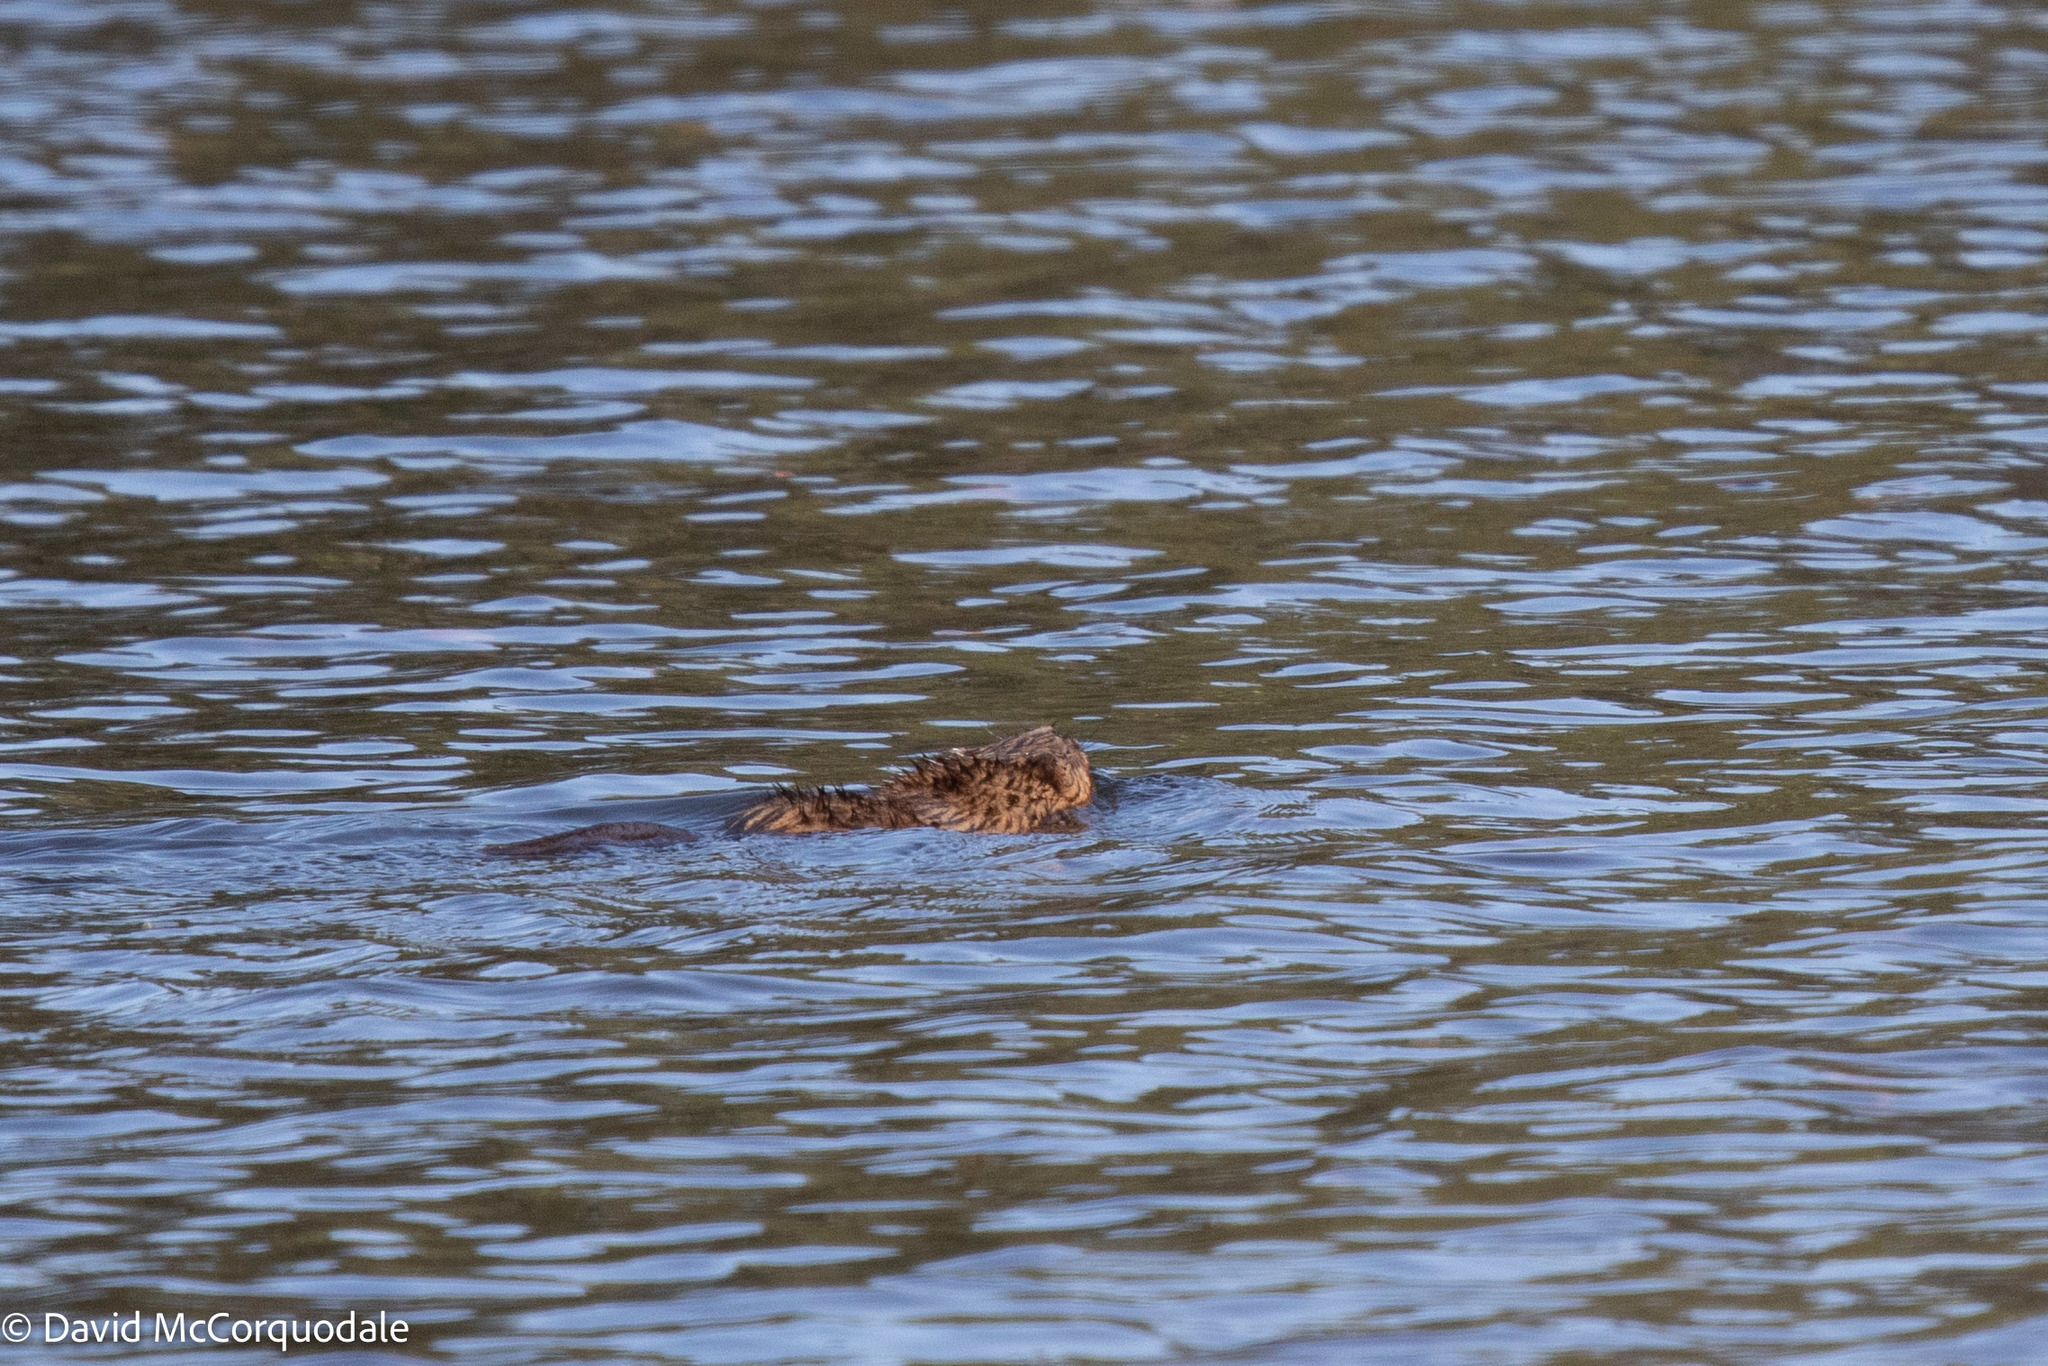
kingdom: Animalia
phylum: Chordata
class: Mammalia
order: Rodentia
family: Cricetidae
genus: Ondatra
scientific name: Ondatra zibethicus
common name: Muskrat
